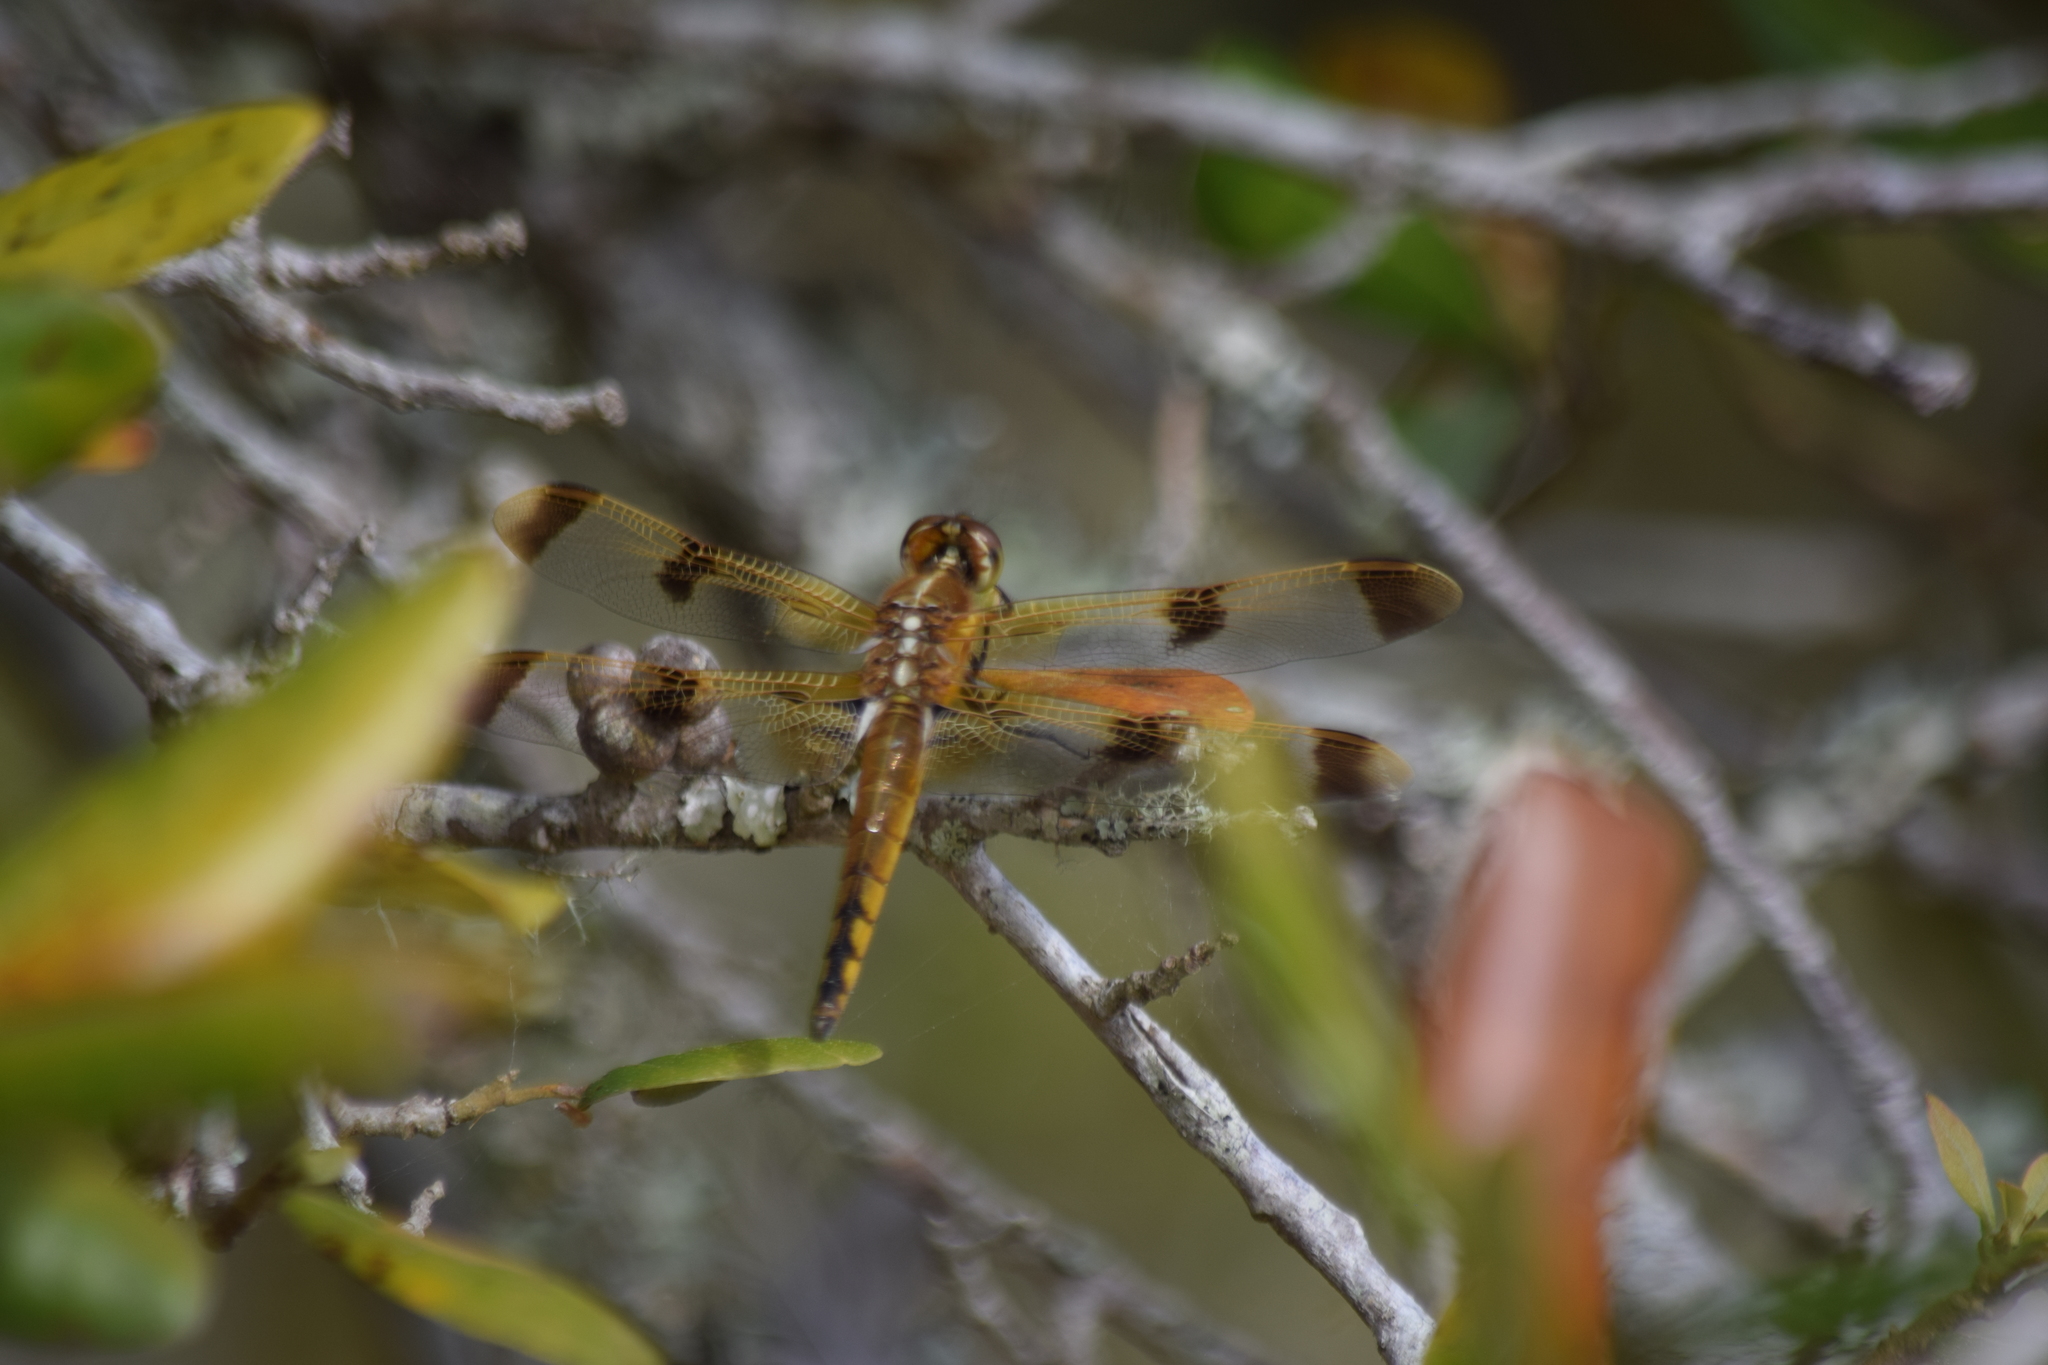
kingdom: Animalia
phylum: Arthropoda
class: Insecta
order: Odonata
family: Libellulidae
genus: Libellula
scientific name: Libellula semifasciata
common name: Painted skimmer
